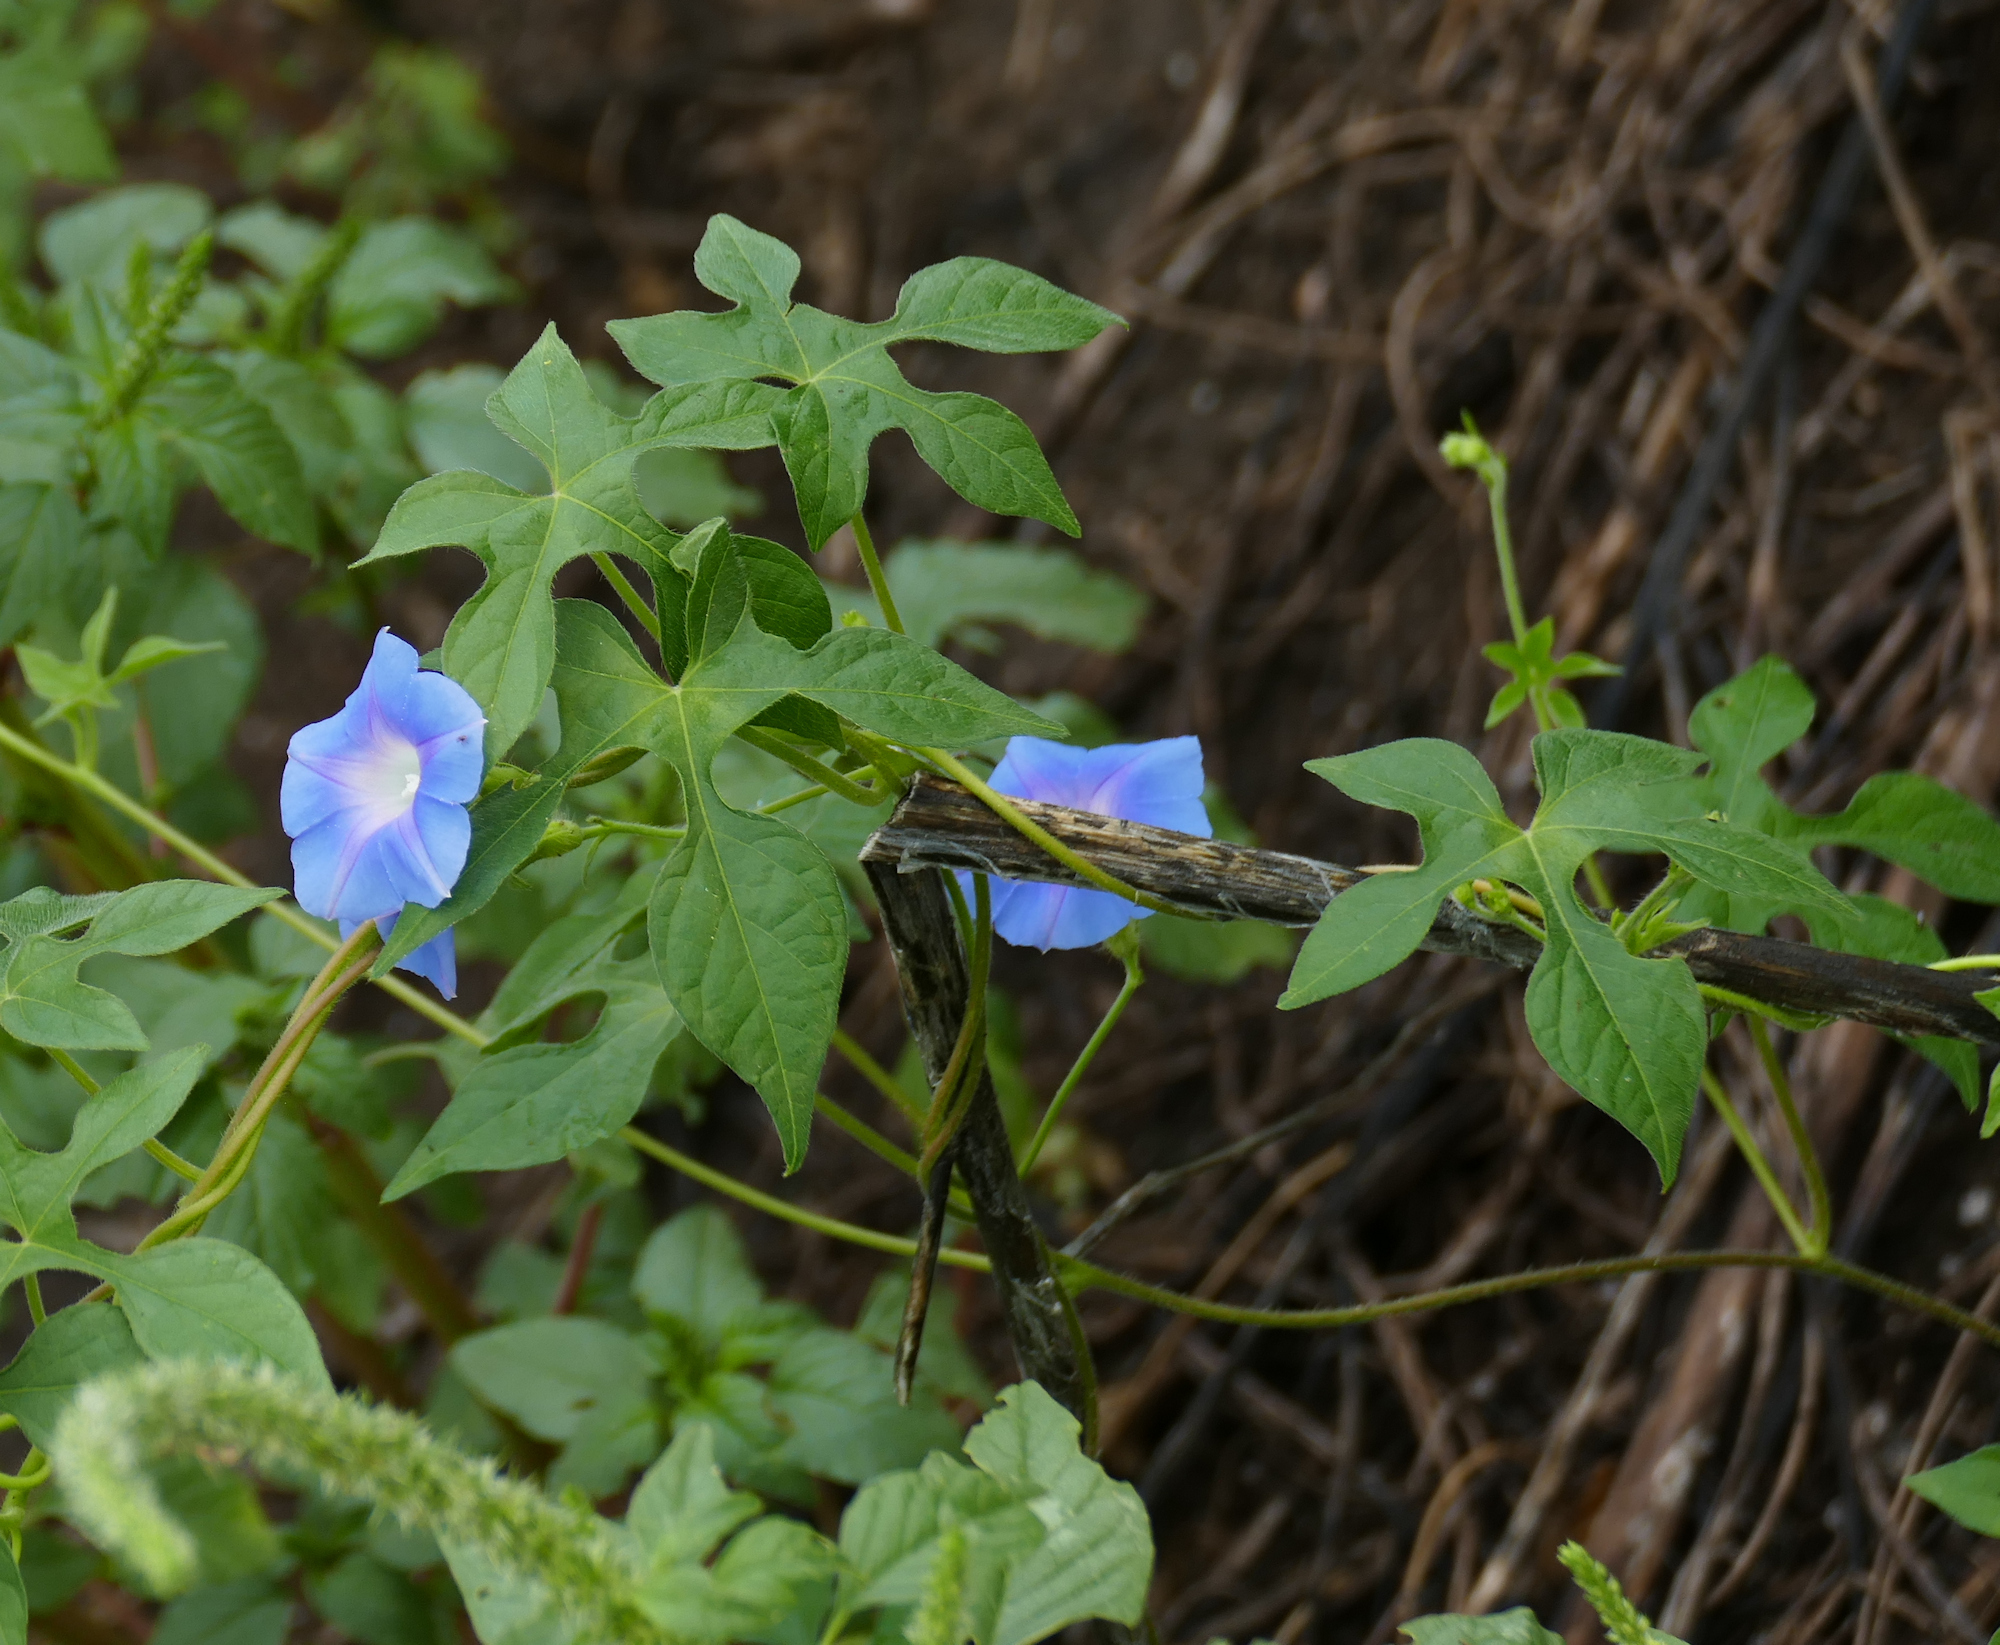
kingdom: Plantae
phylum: Tracheophyta
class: Magnoliopsida
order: Solanales
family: Convolvulaceae
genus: Ipomoea
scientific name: Ipomoea hederacea
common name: Ivy-leaved morning-glory
